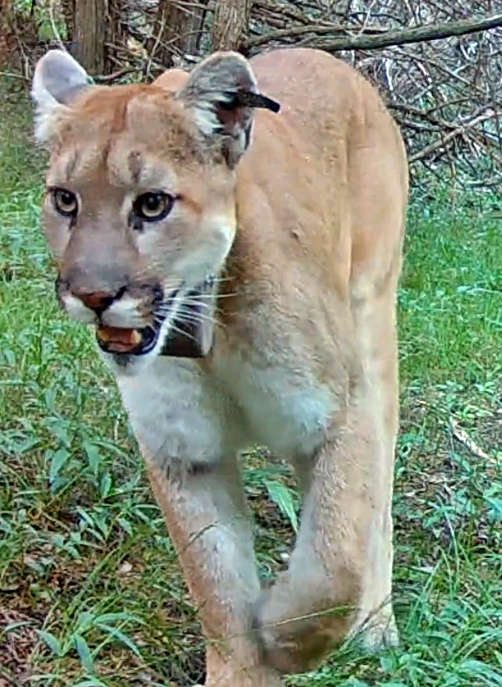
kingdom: Animalia
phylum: Chordata
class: Mammalia
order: Carnivora
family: Felidae
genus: Puma
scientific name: Puma concolor
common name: Puma
